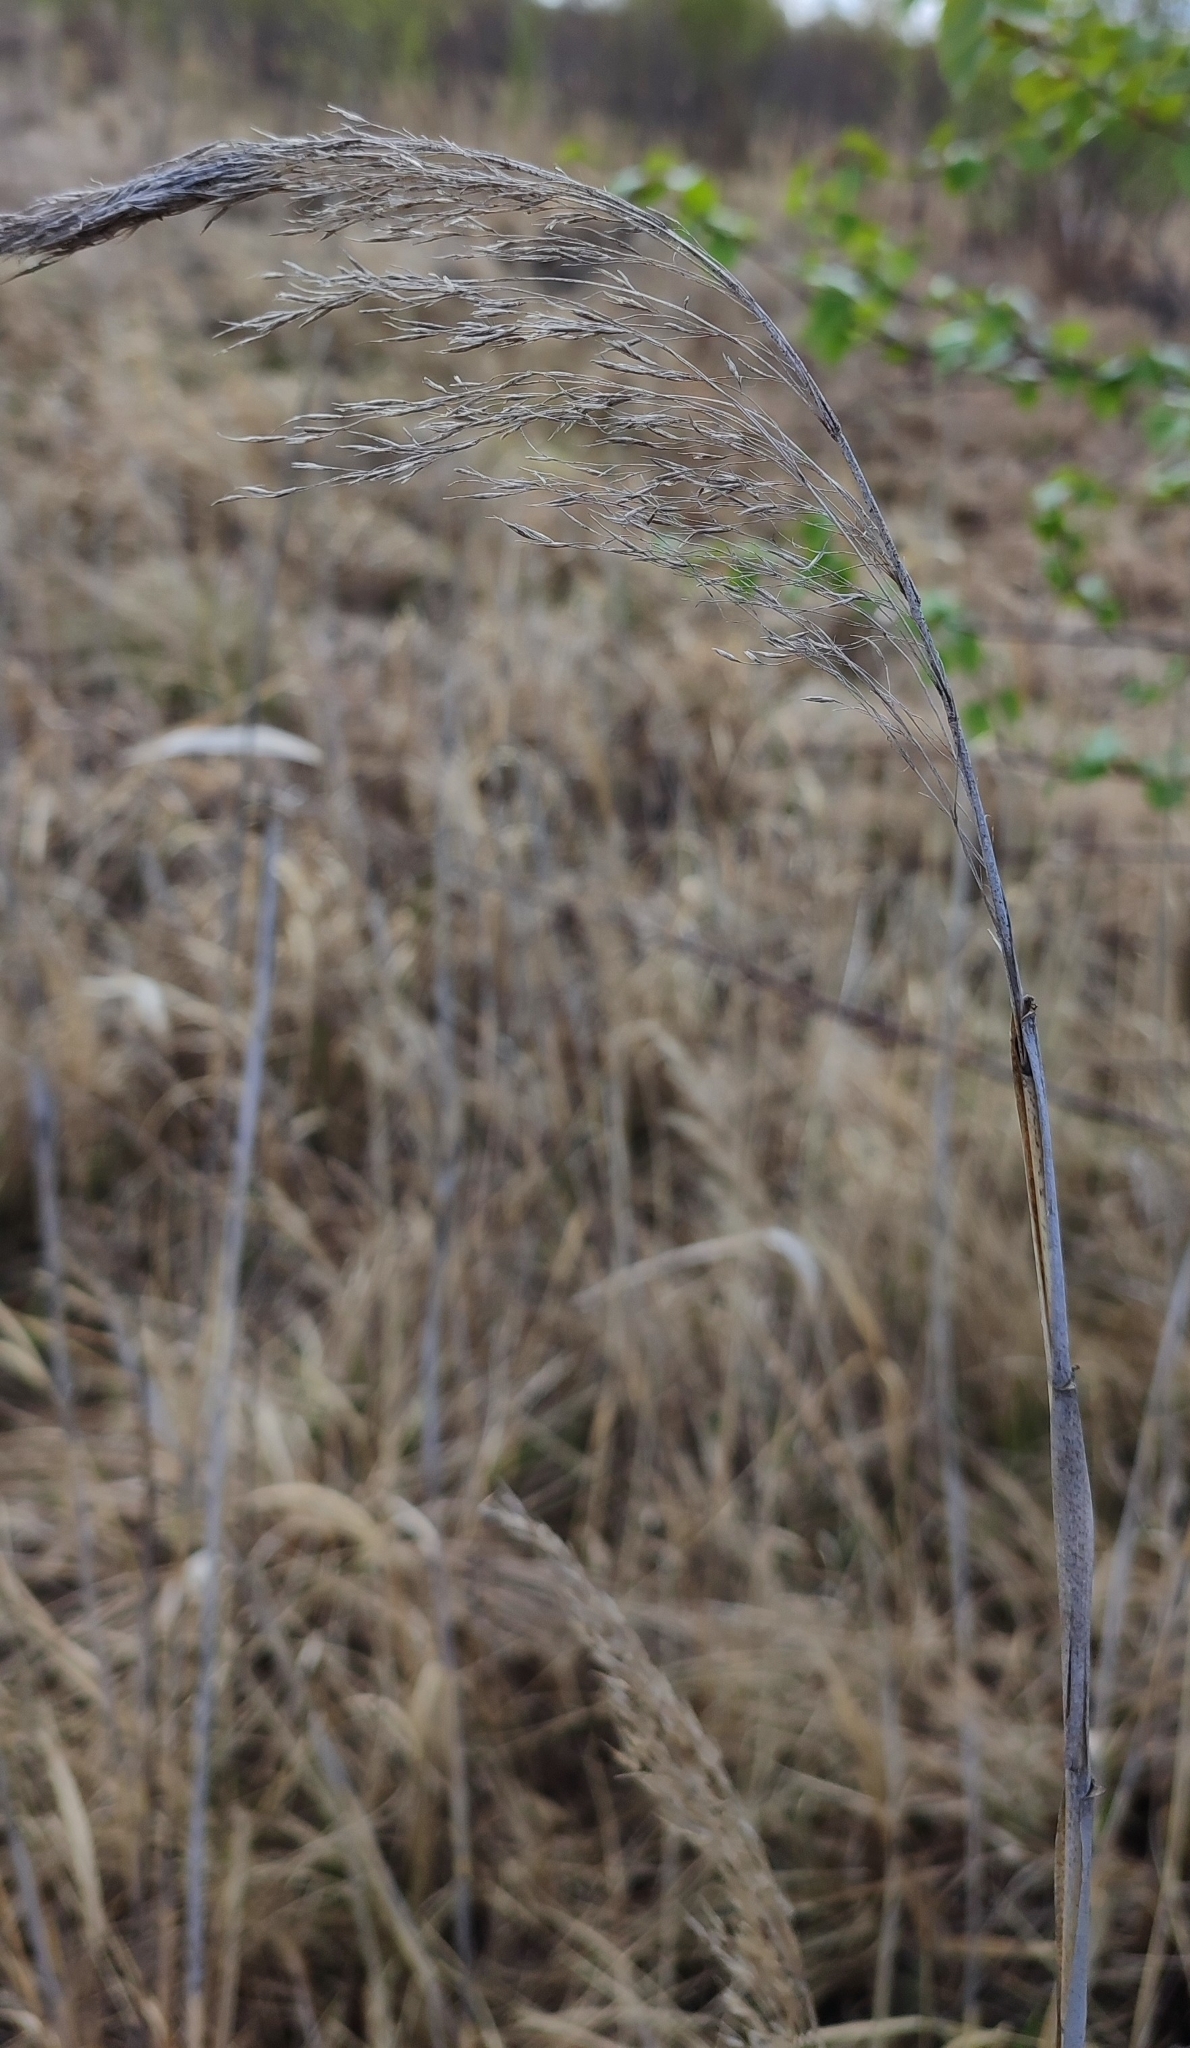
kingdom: Plantae
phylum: Tracheophyta
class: Liliopsida
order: Poales
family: Poaceae
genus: Phragmites
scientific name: Phragmites australis
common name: Common reed
